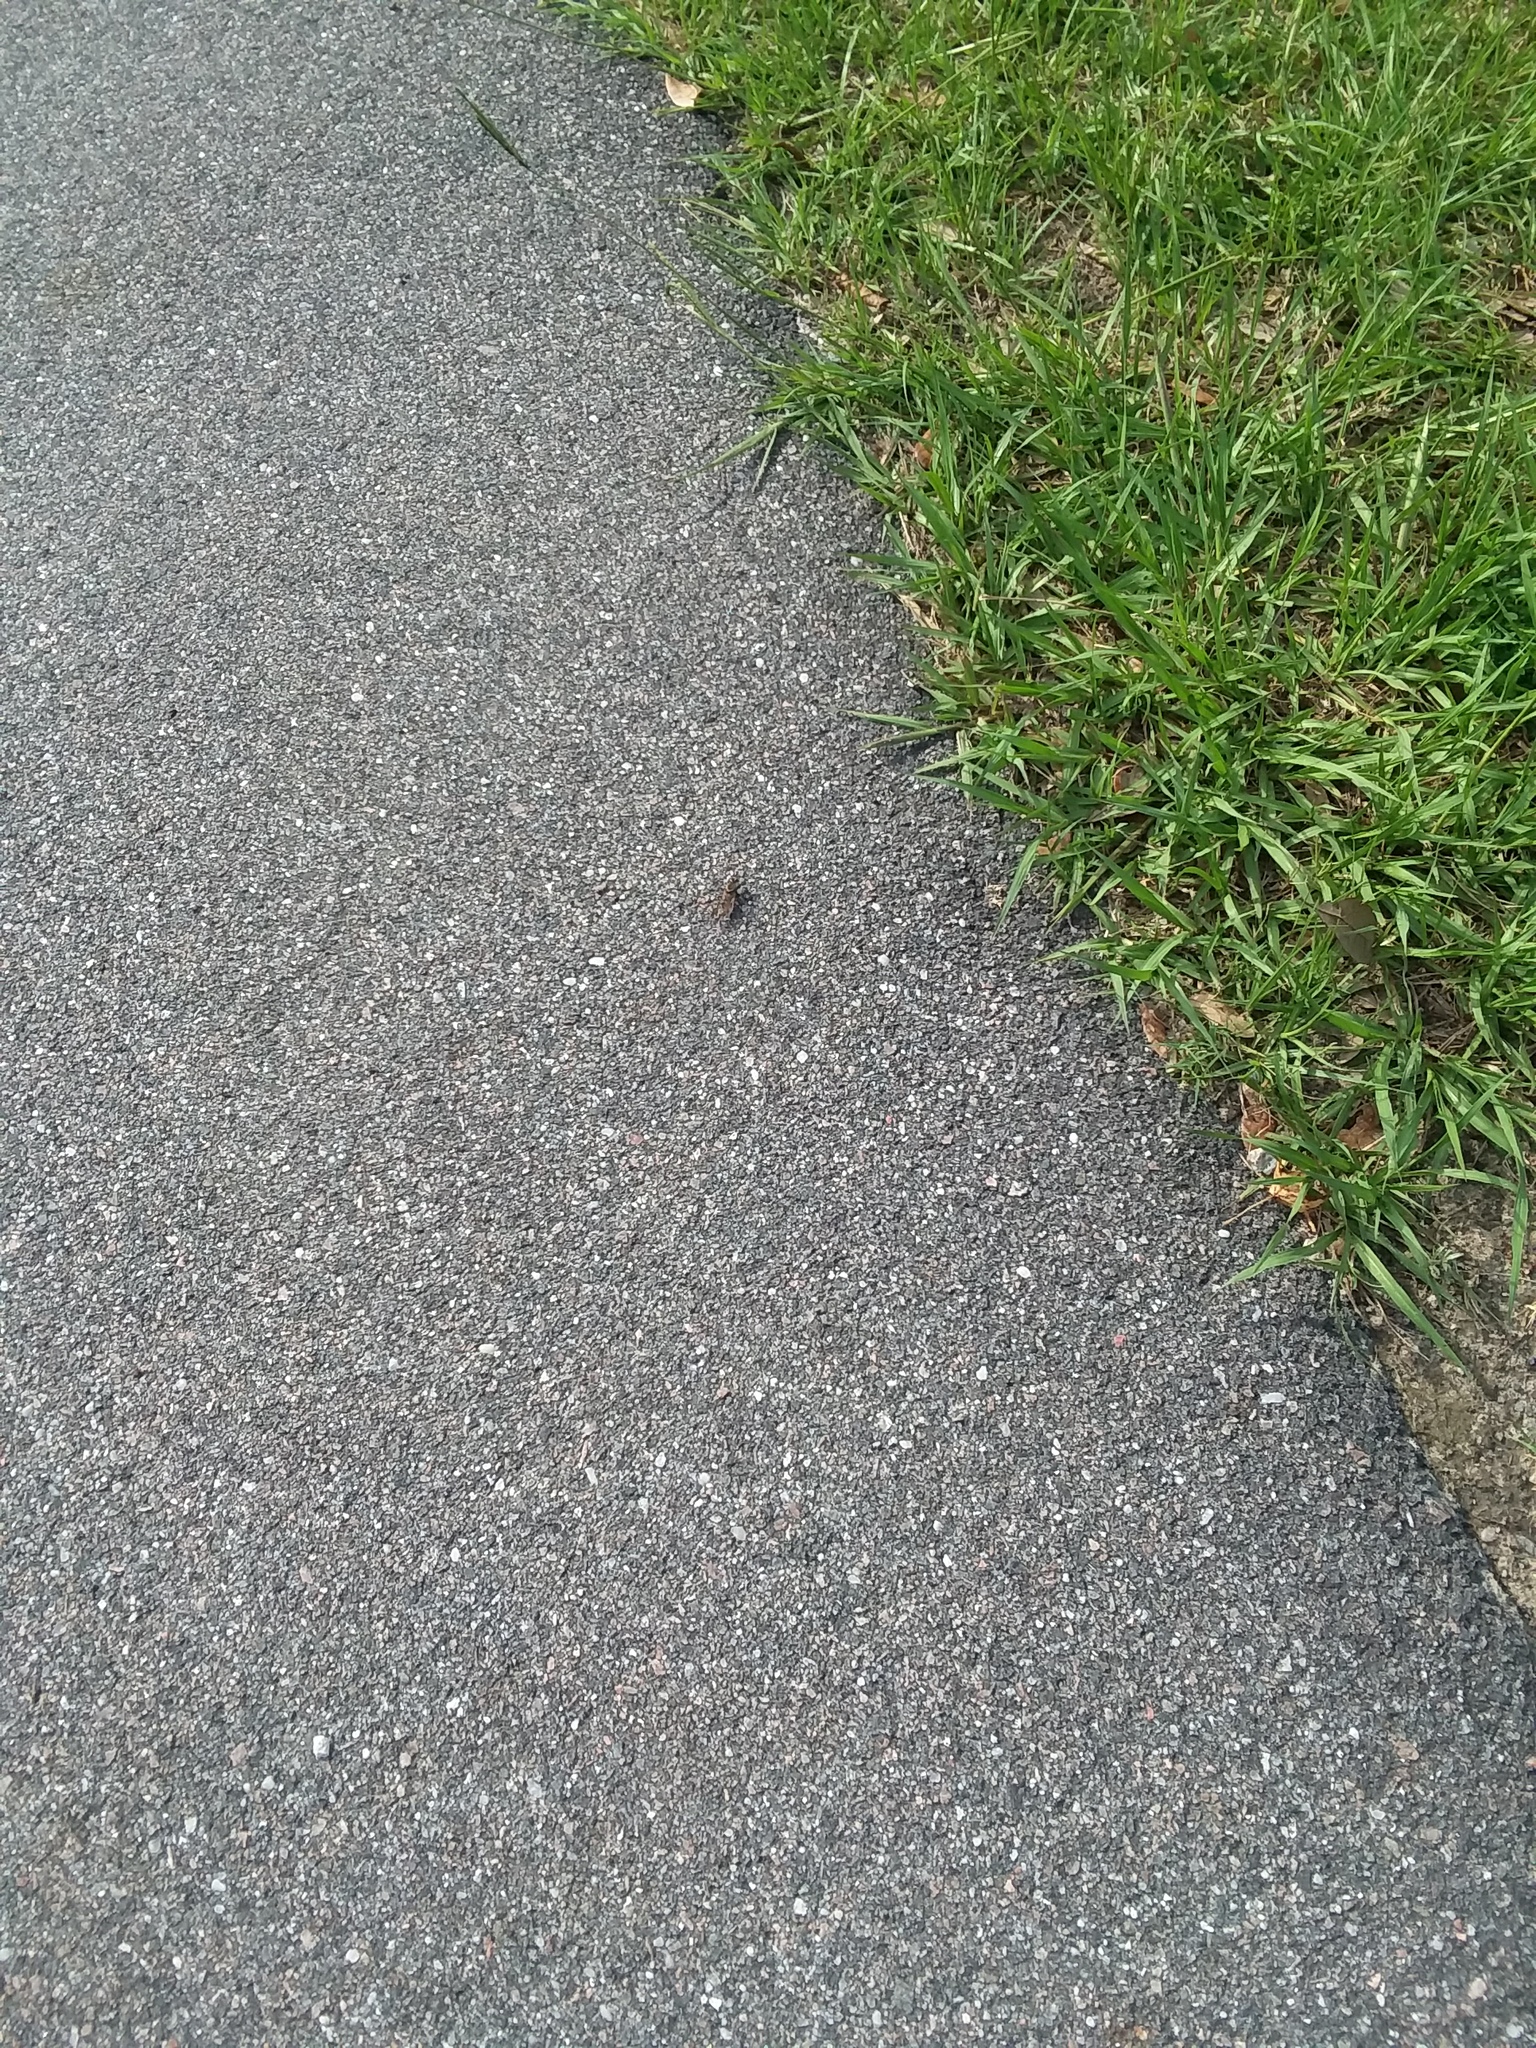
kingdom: Animalia
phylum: Arthropoda
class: Insecta
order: Diptera
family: Asilidae
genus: Triorla
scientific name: Triorla interrupta
